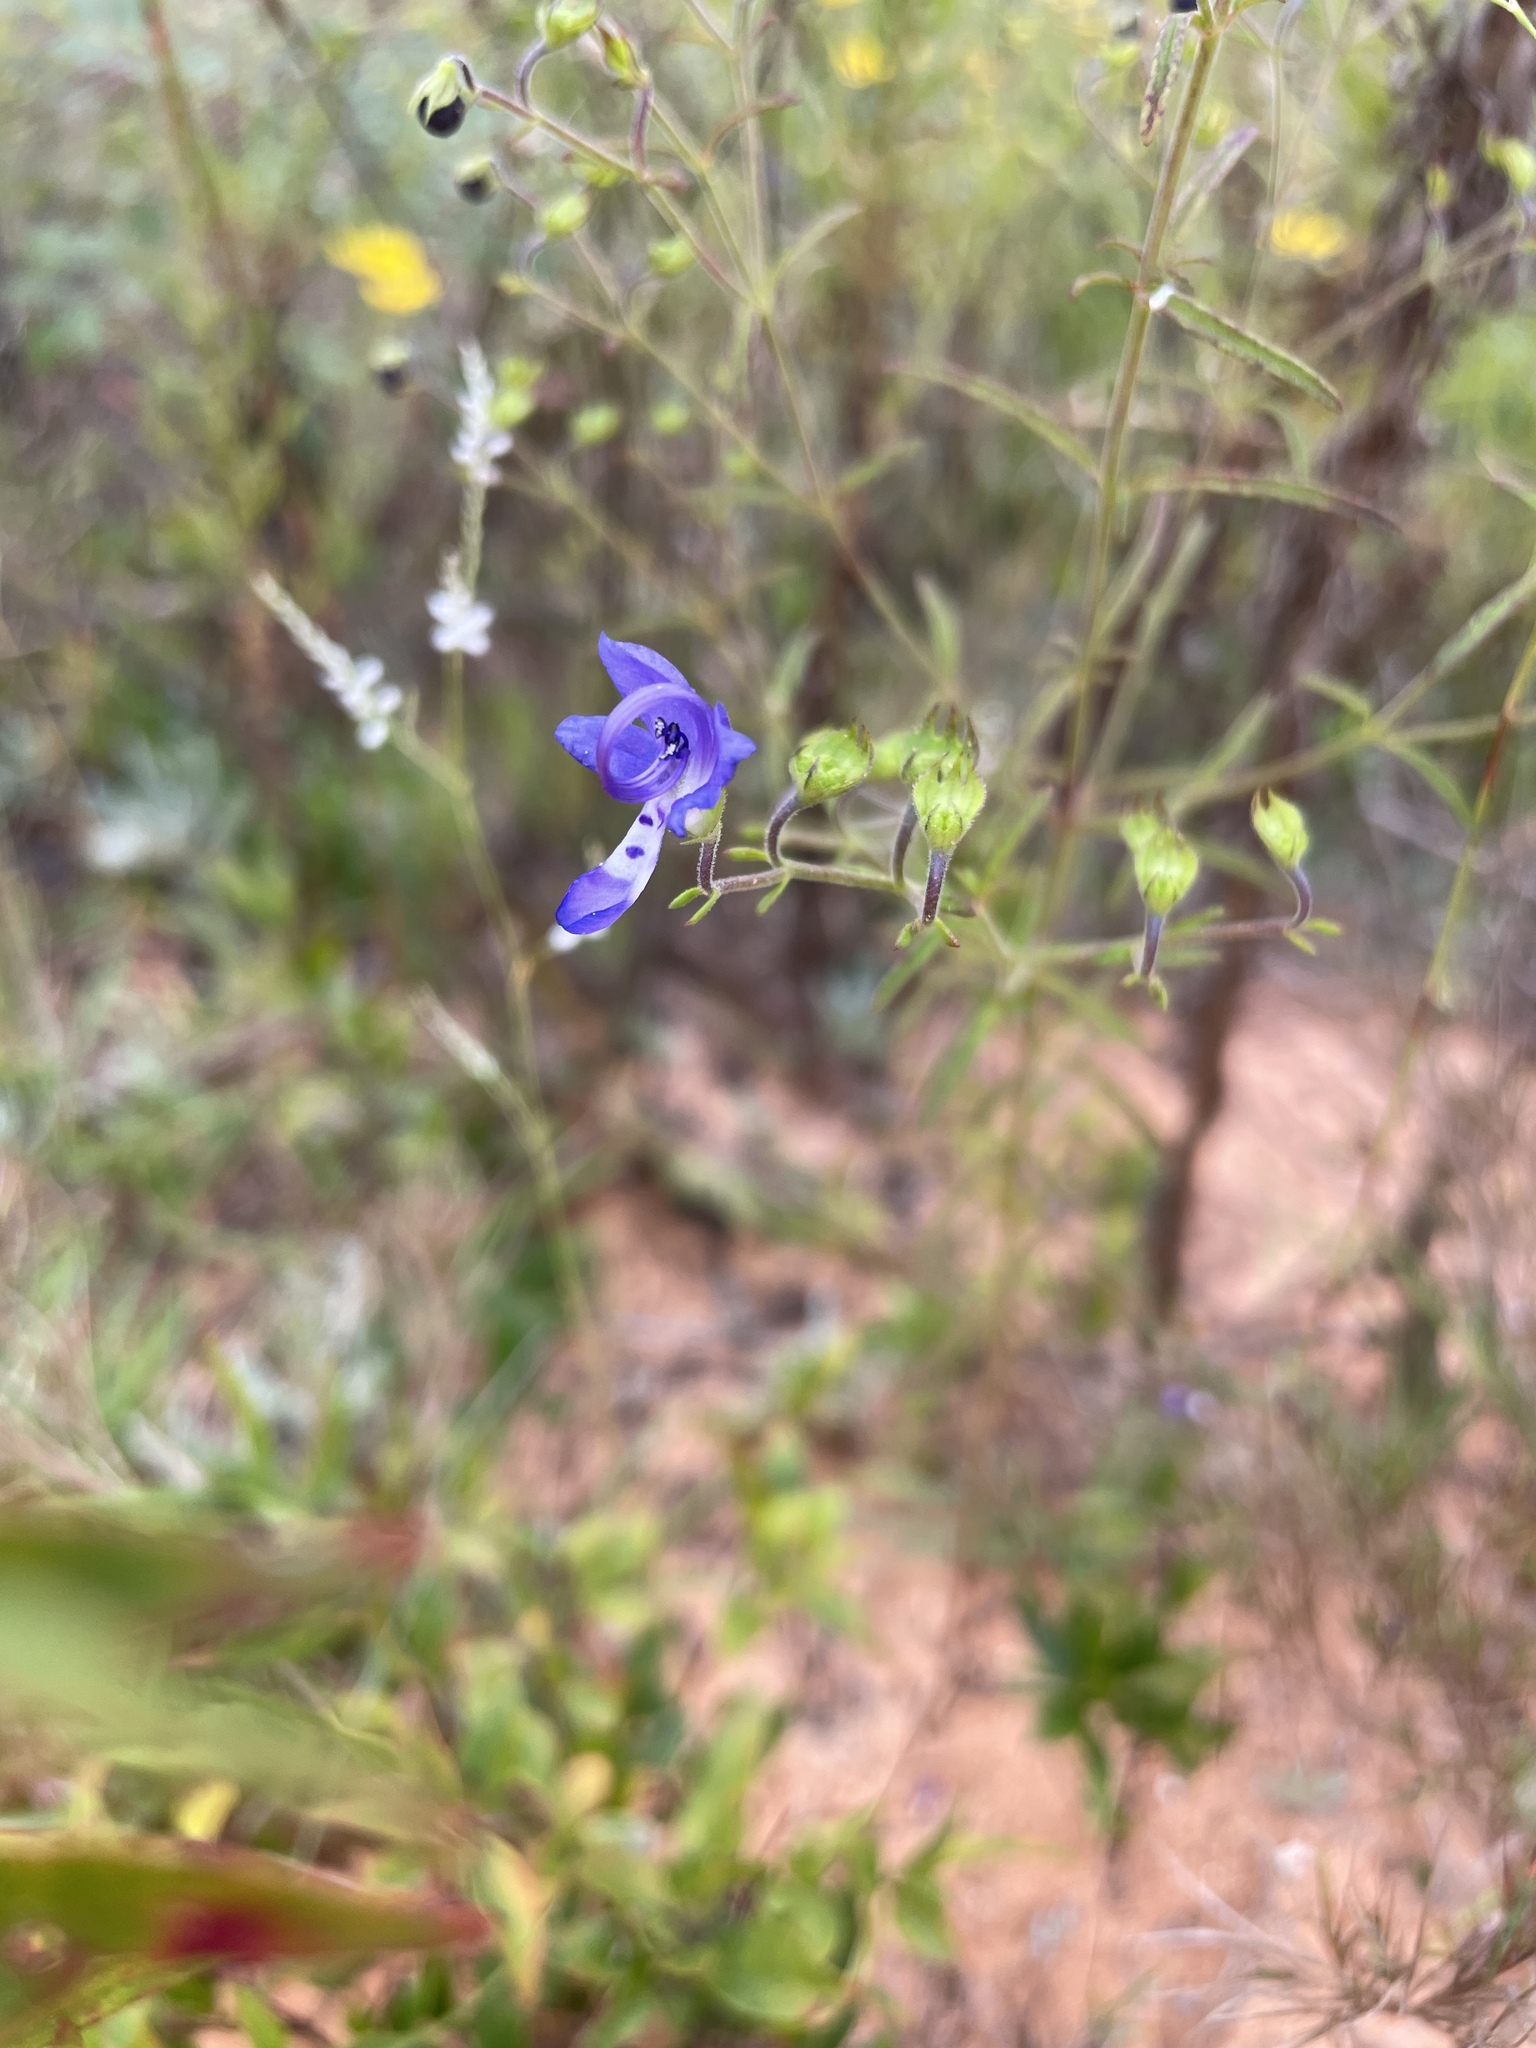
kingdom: Plantae
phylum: Tracheophyta
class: Magnoliopsida
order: Lamiales
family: Lamiaceae
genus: Trichostema
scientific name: Trichostema setaceum
